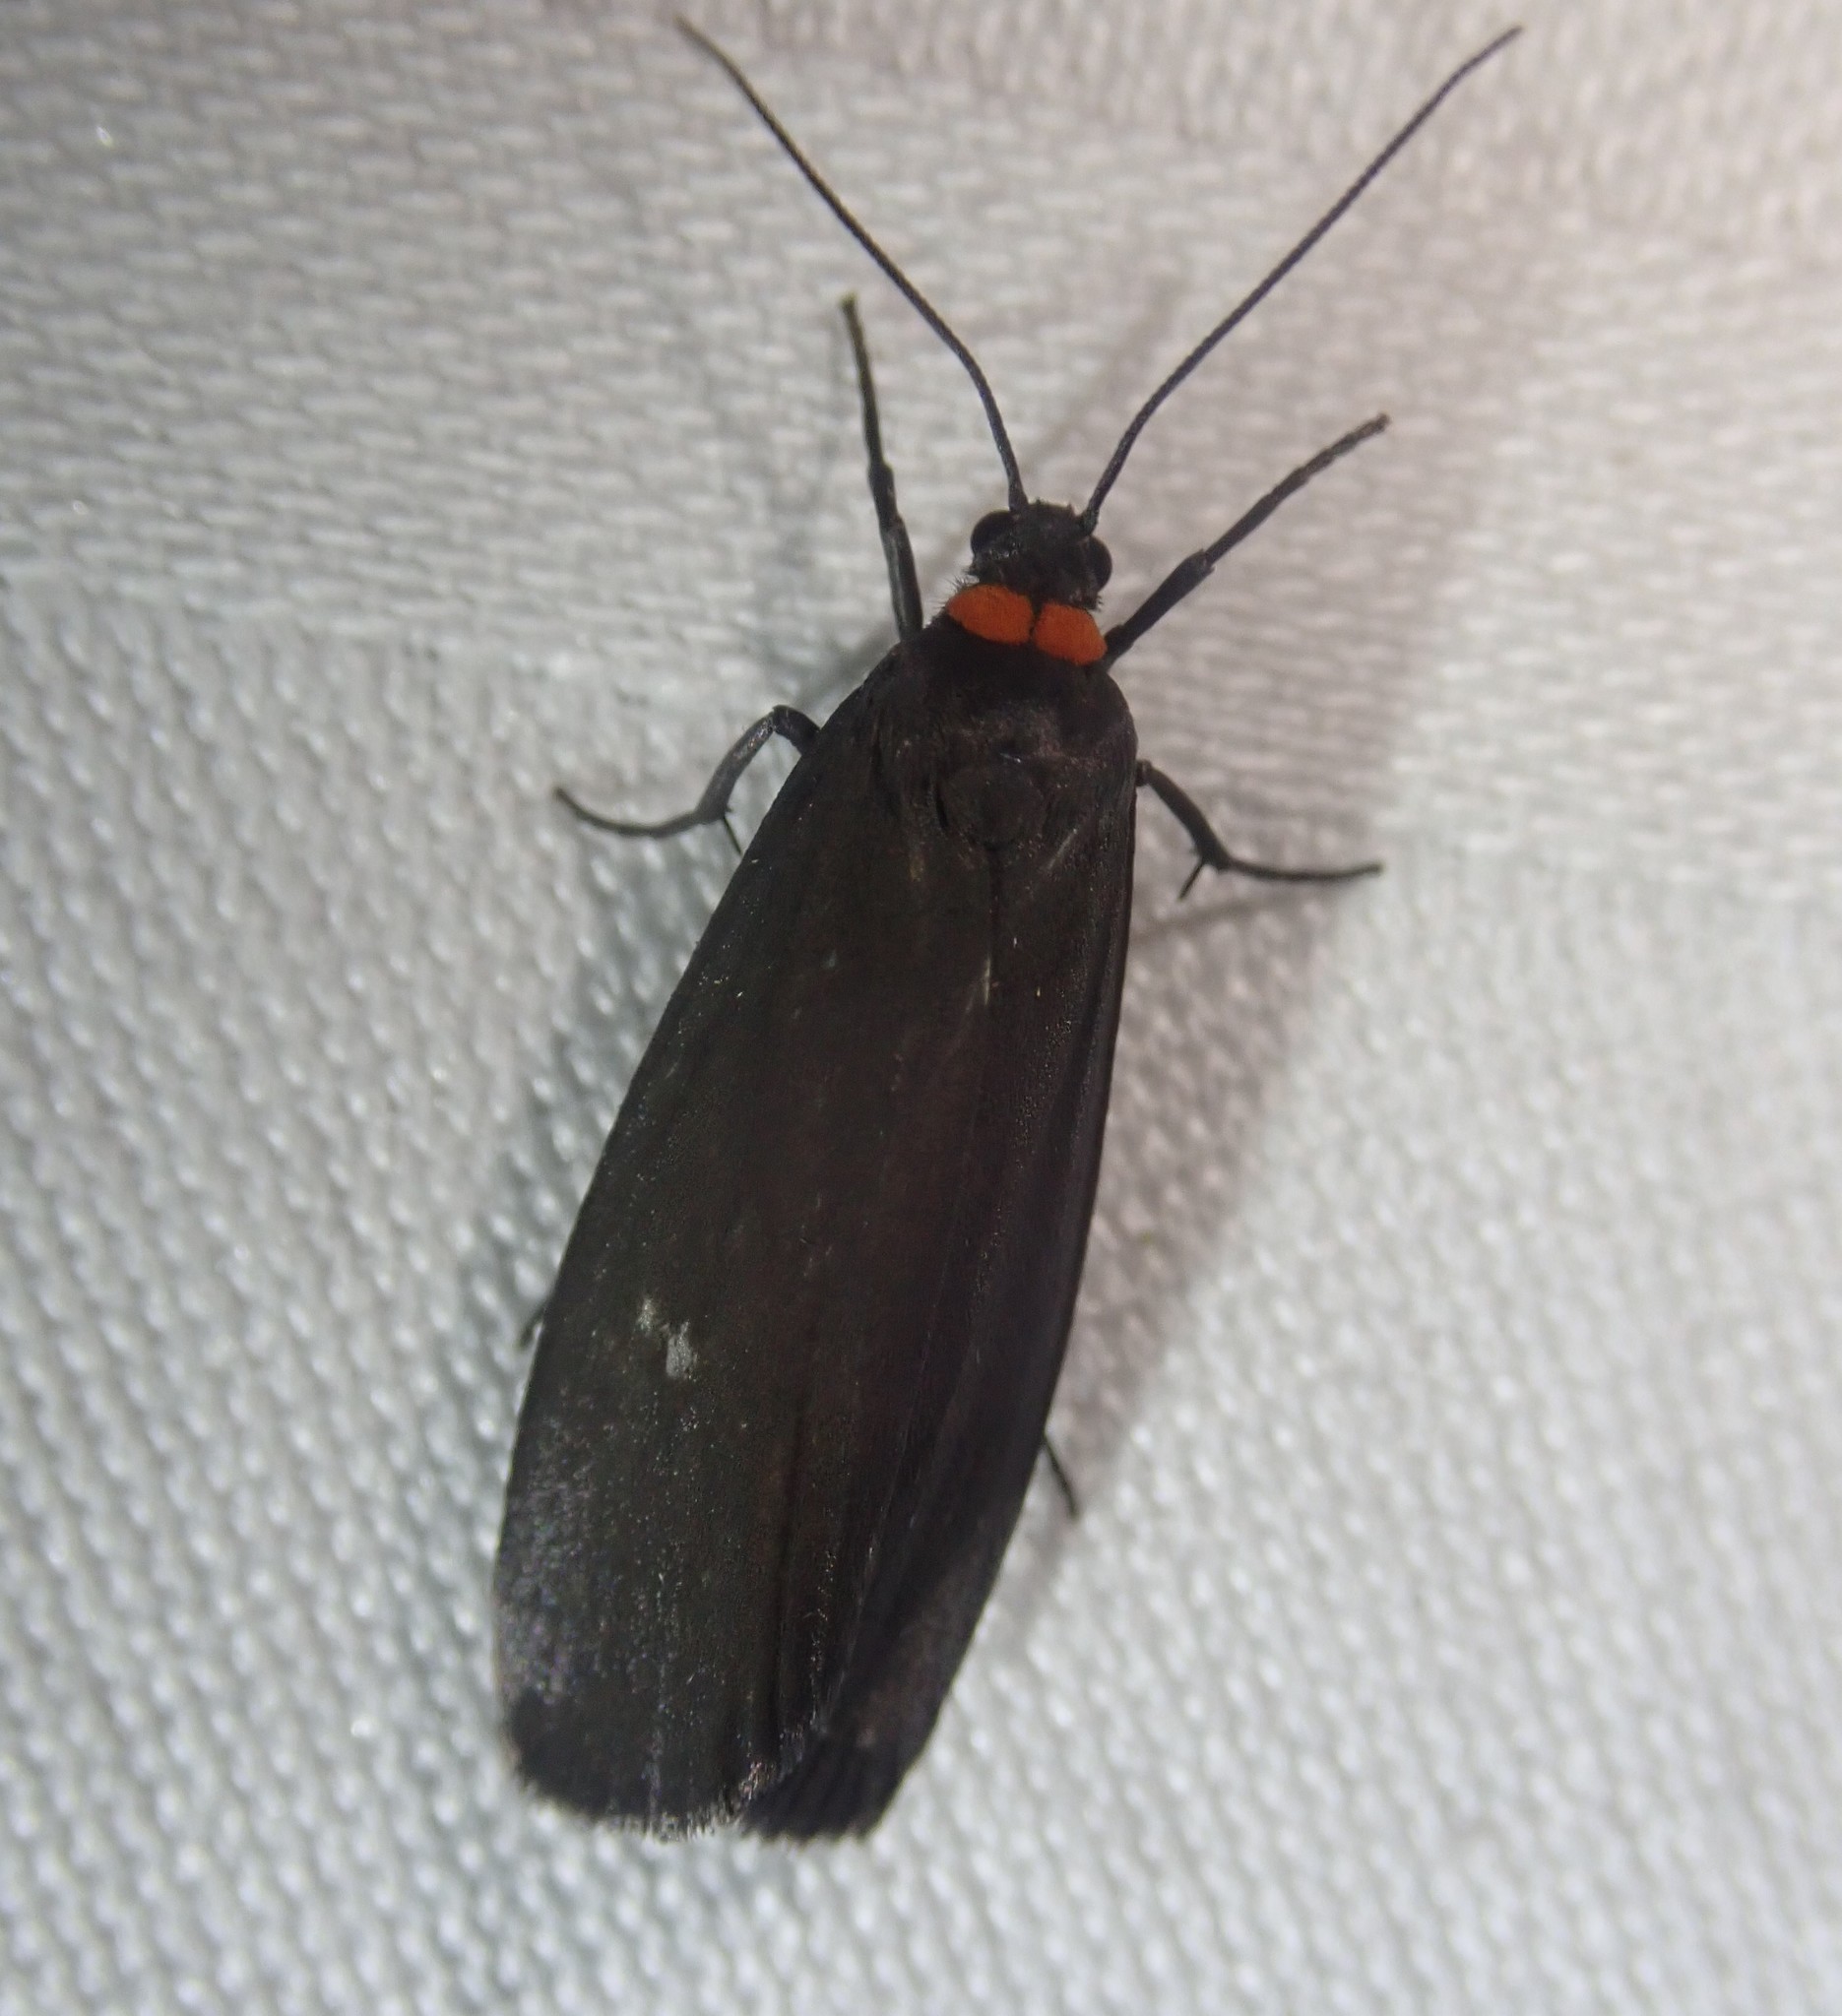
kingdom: Animalia
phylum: Arthropoda
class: Insecta
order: Lepidoptera
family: Erebidae
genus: Atolmis
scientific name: Atolmis rubricollis
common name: Red-necked footman
